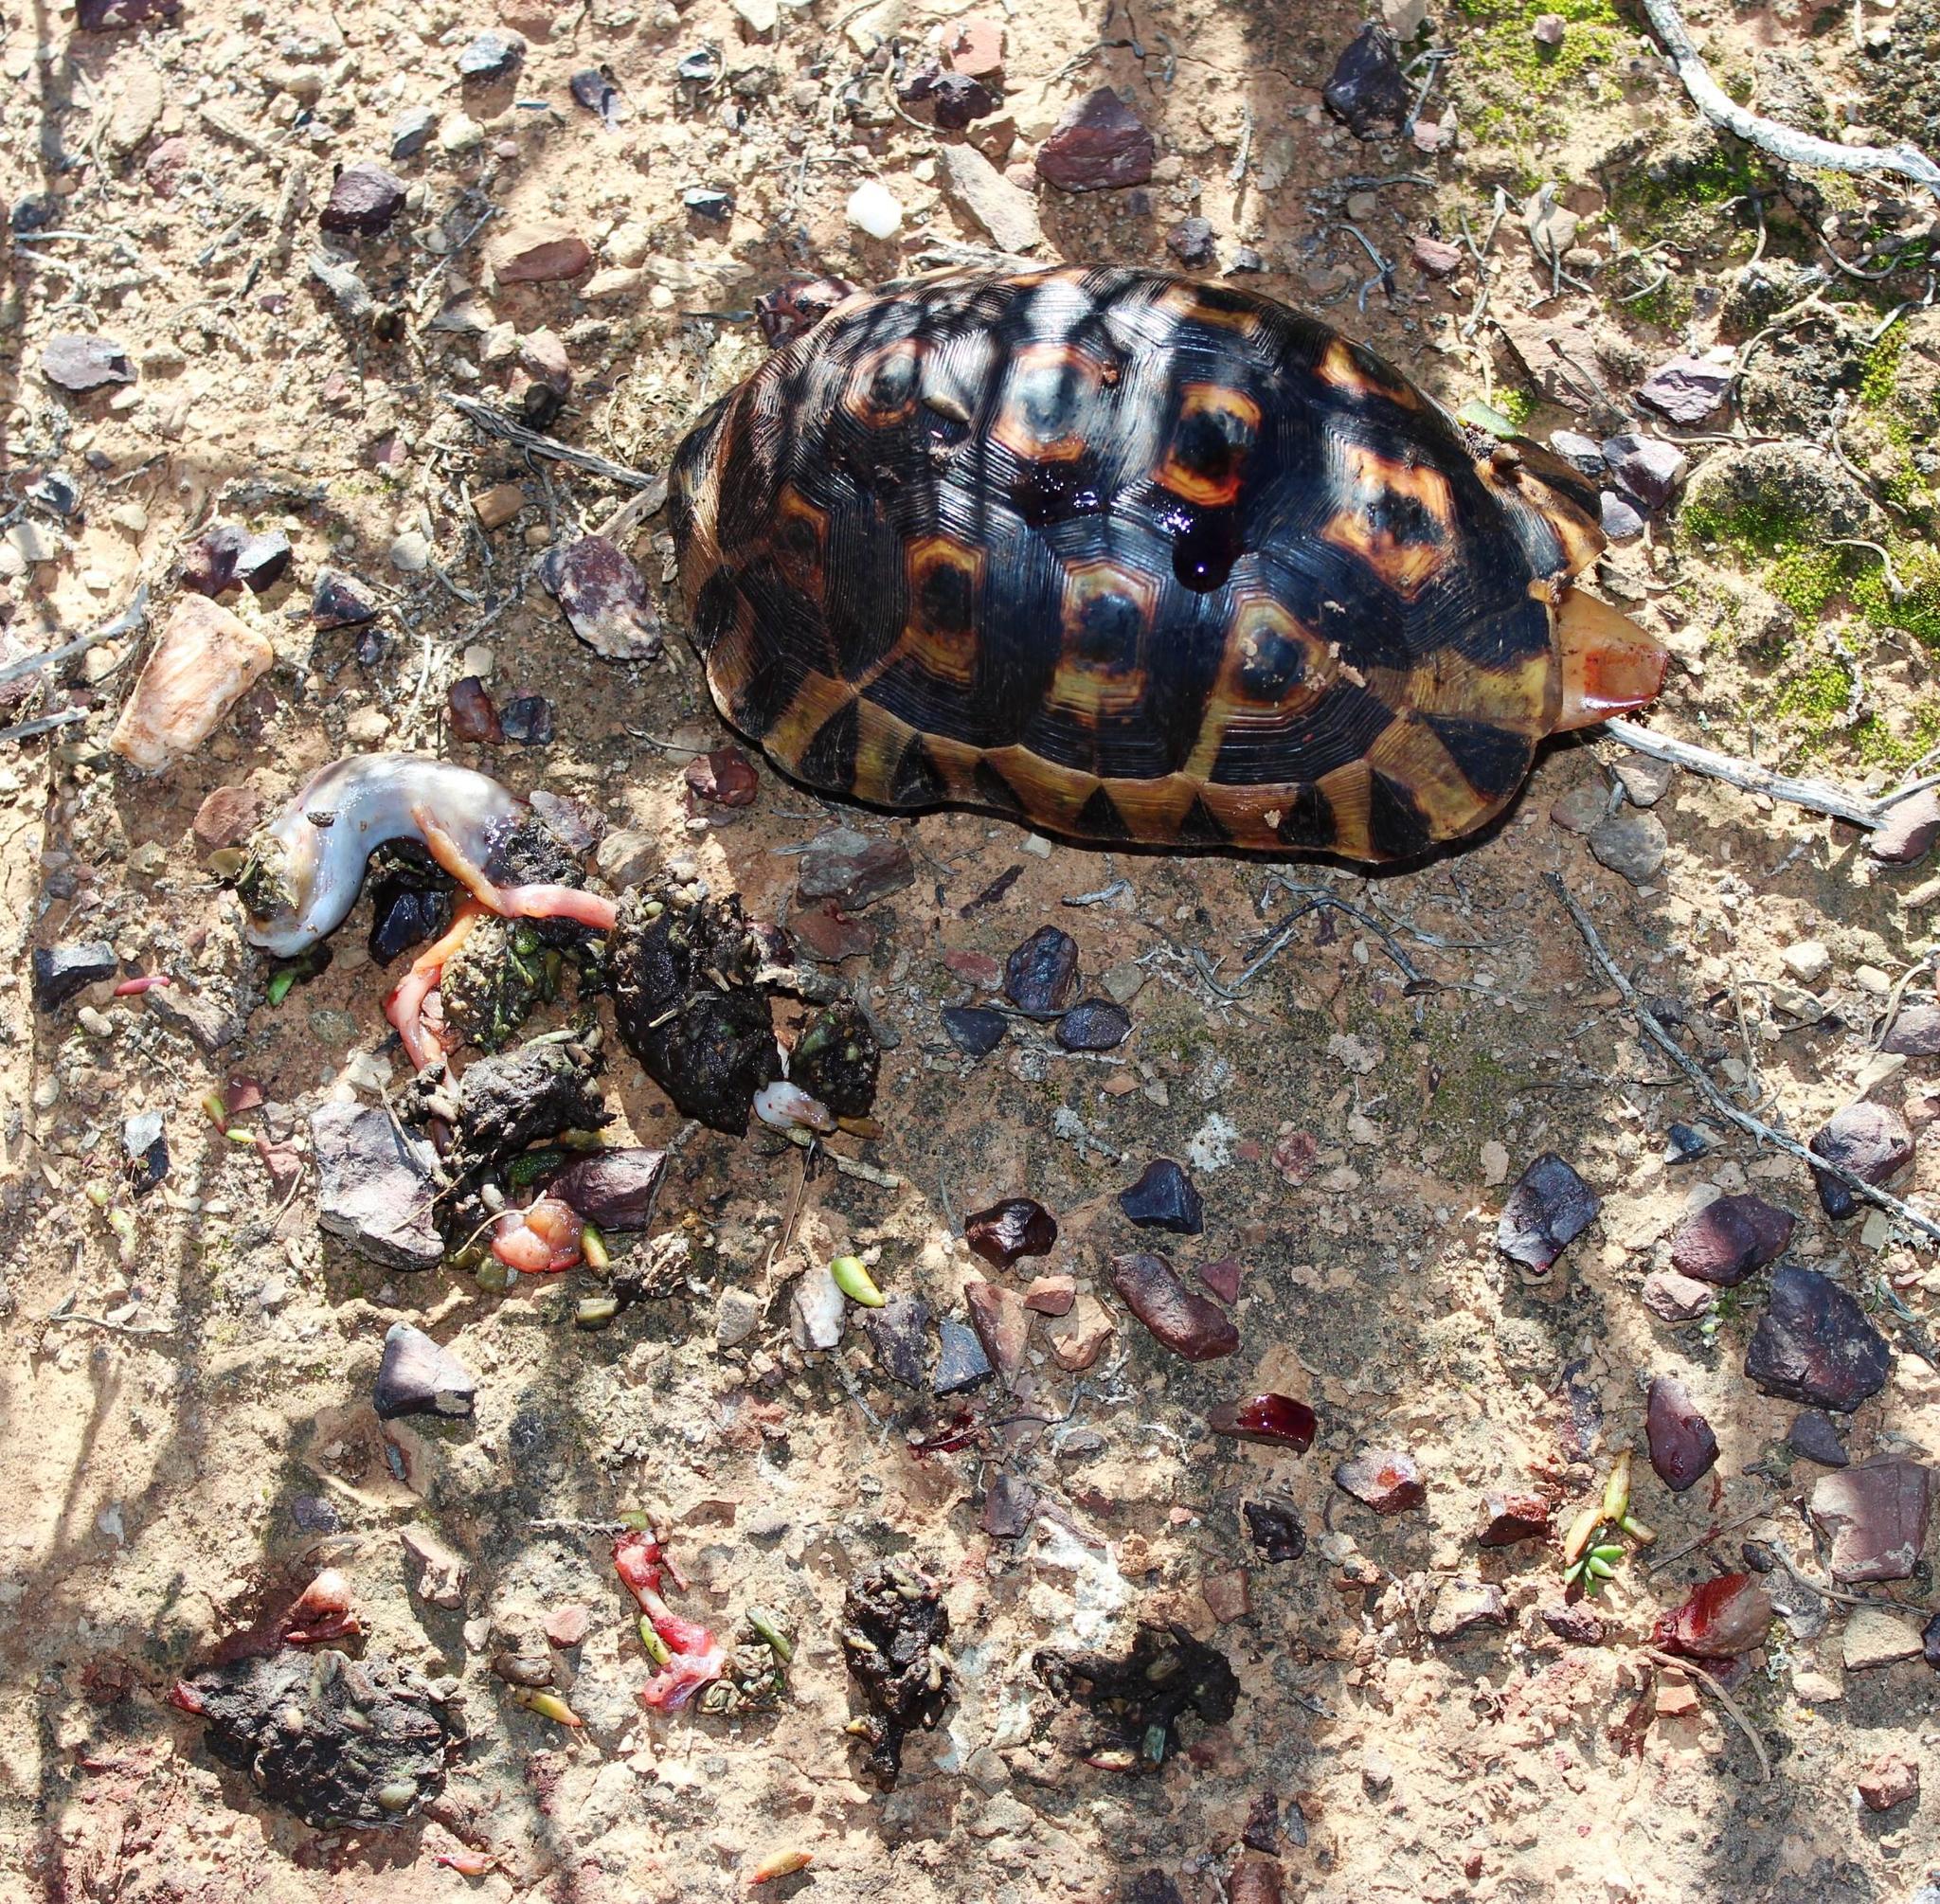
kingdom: Animalia
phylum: Chordata
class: Testudines
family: Testudinidae
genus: Chersina
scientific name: Chersina angulata
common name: South african bowsprit tortoise
